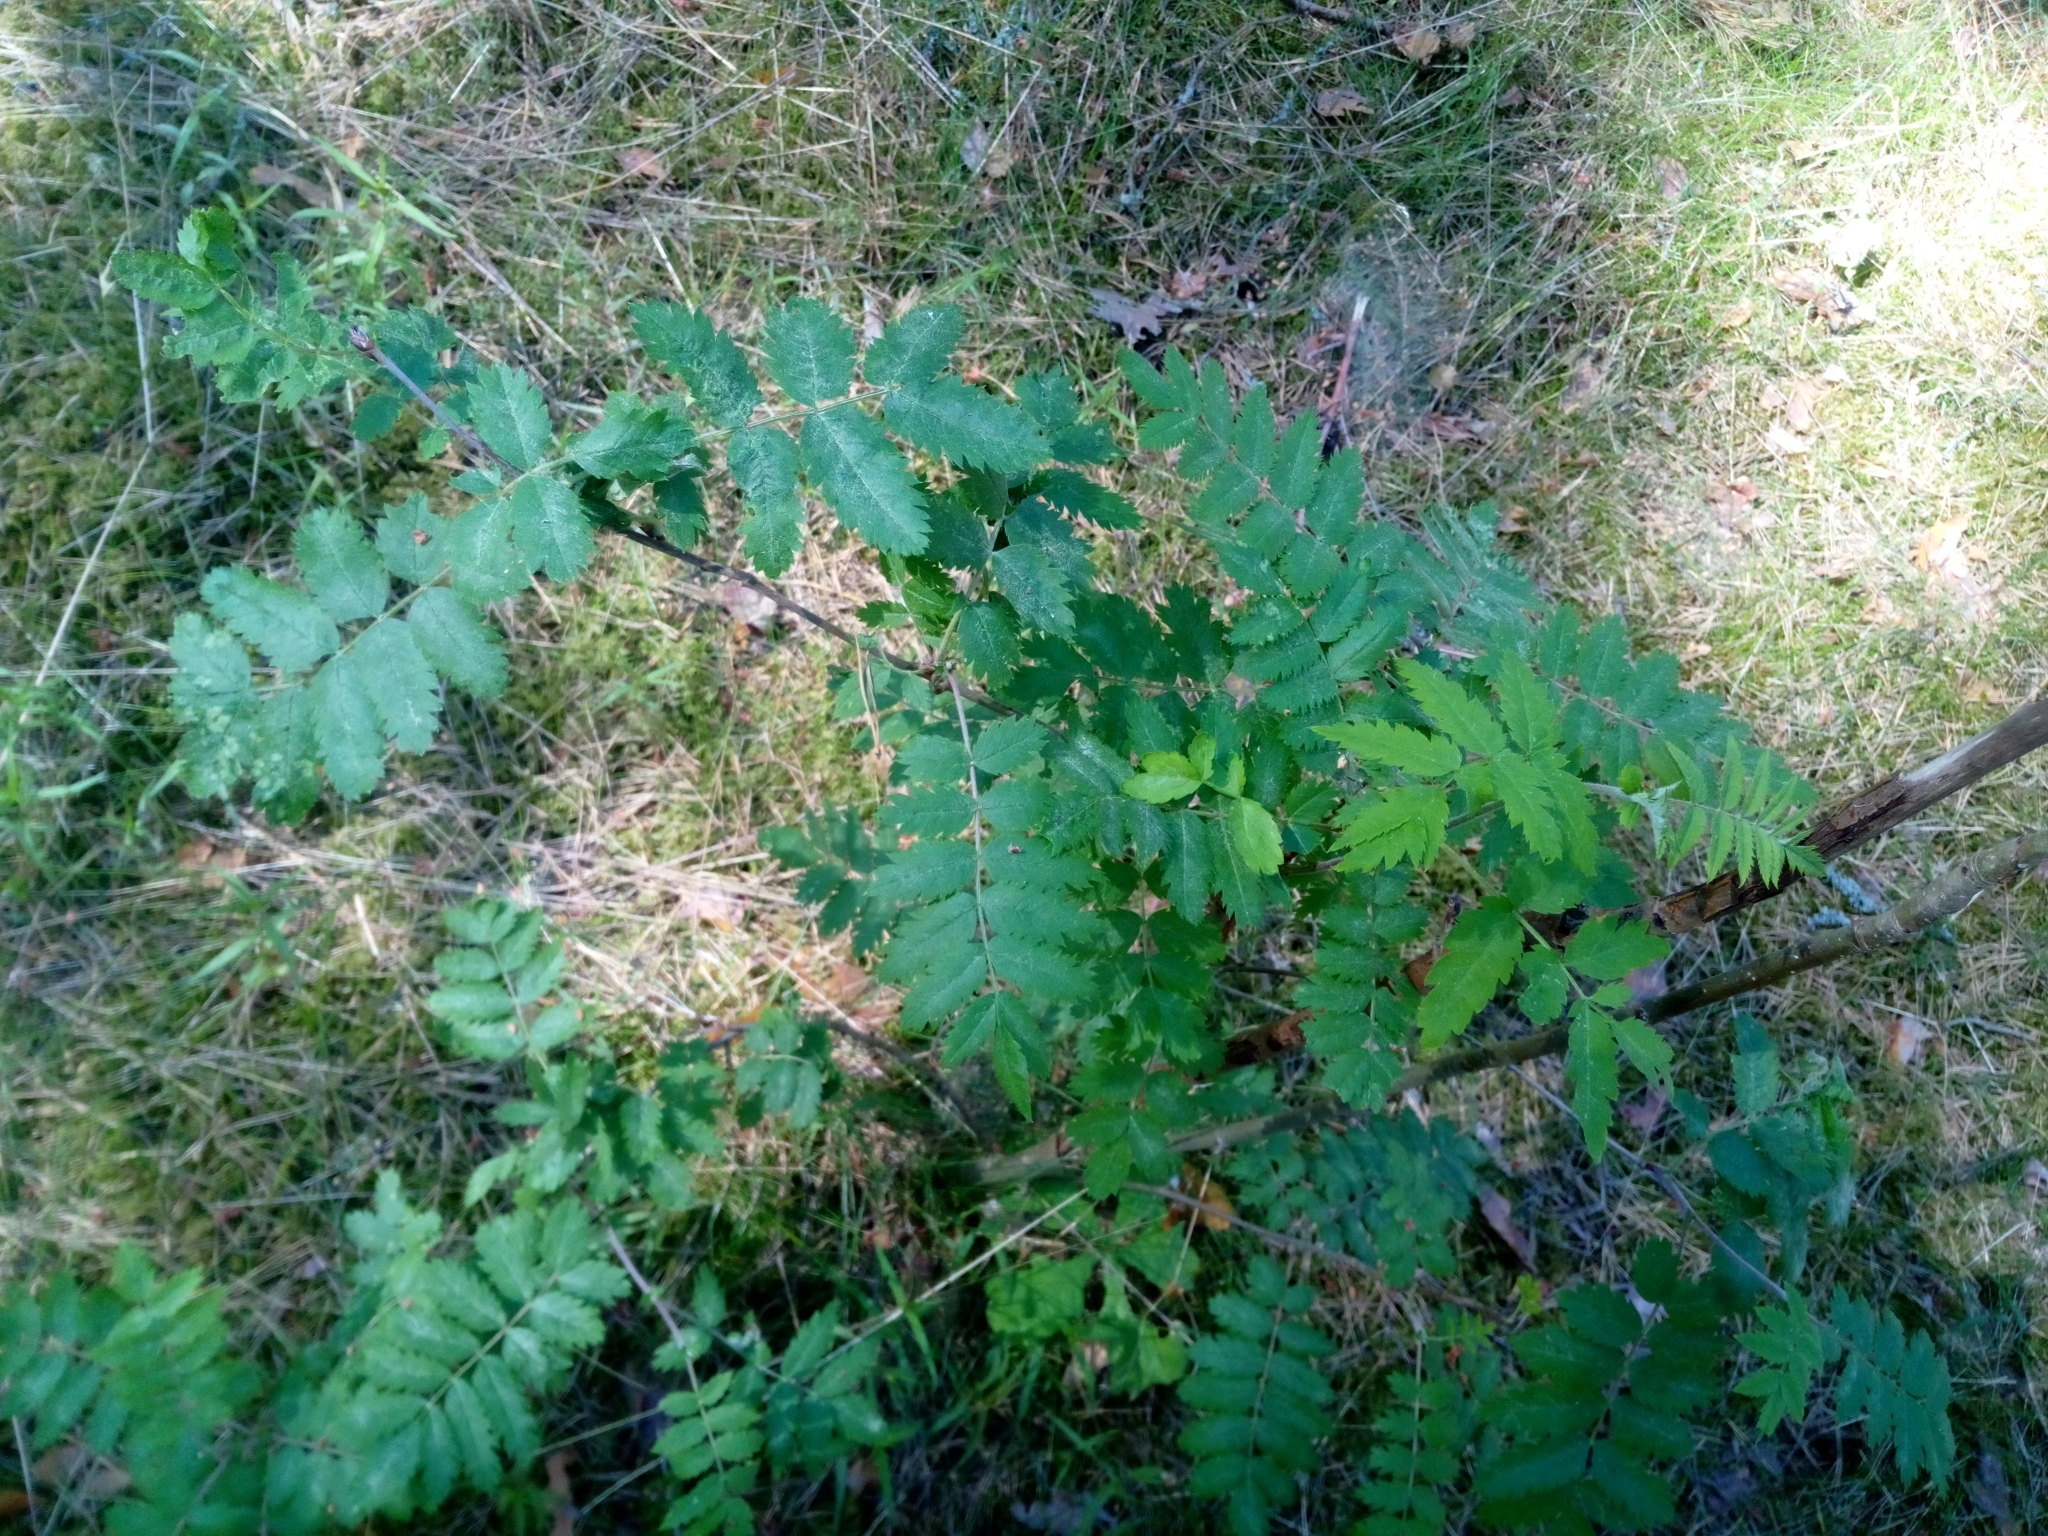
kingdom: Plantae
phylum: Tracheophyta
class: Magnoliopsida
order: Rosales
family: Rosaceae
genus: Sorbus
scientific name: Sorbus aucuparia
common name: Rowan
